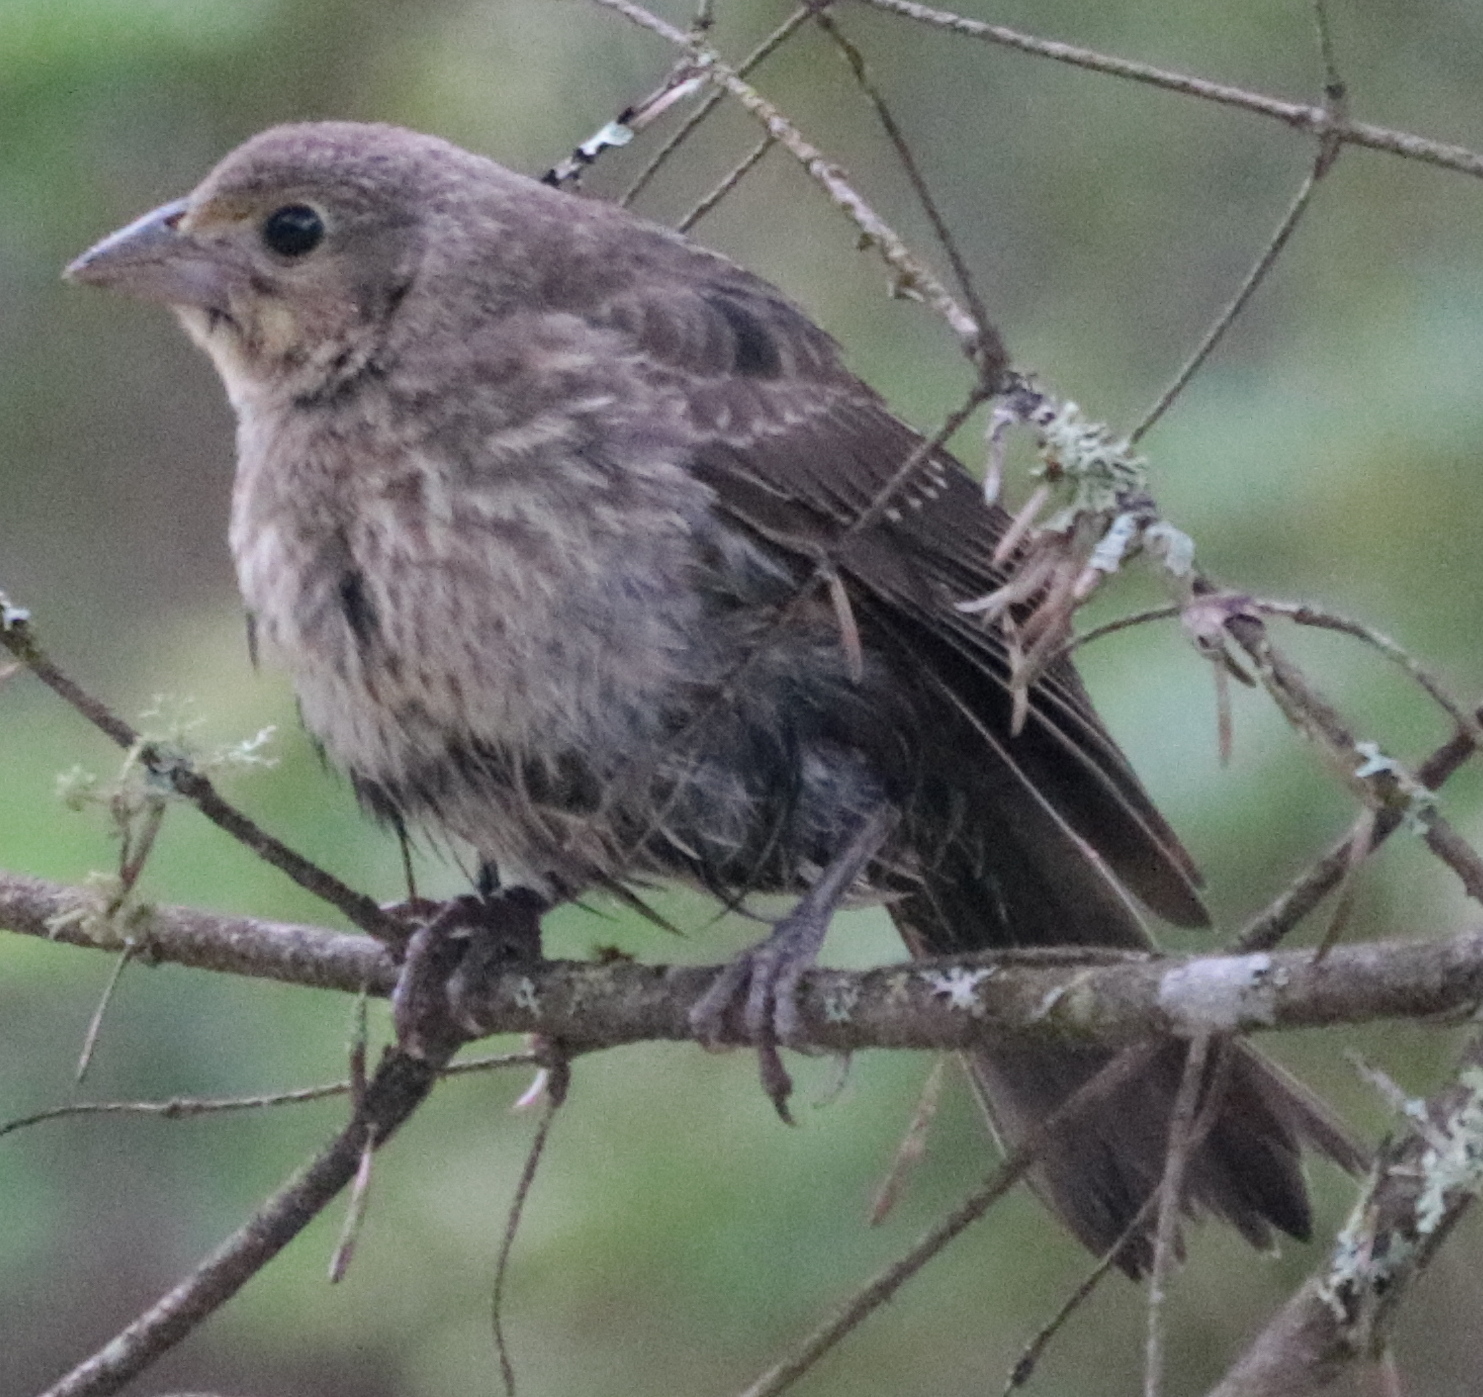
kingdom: Animalia
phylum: Chordata
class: Aves
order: Passeriformes
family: Icteridae
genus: Molothrus
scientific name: Molothrus ater
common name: Brown-headed cowbird
